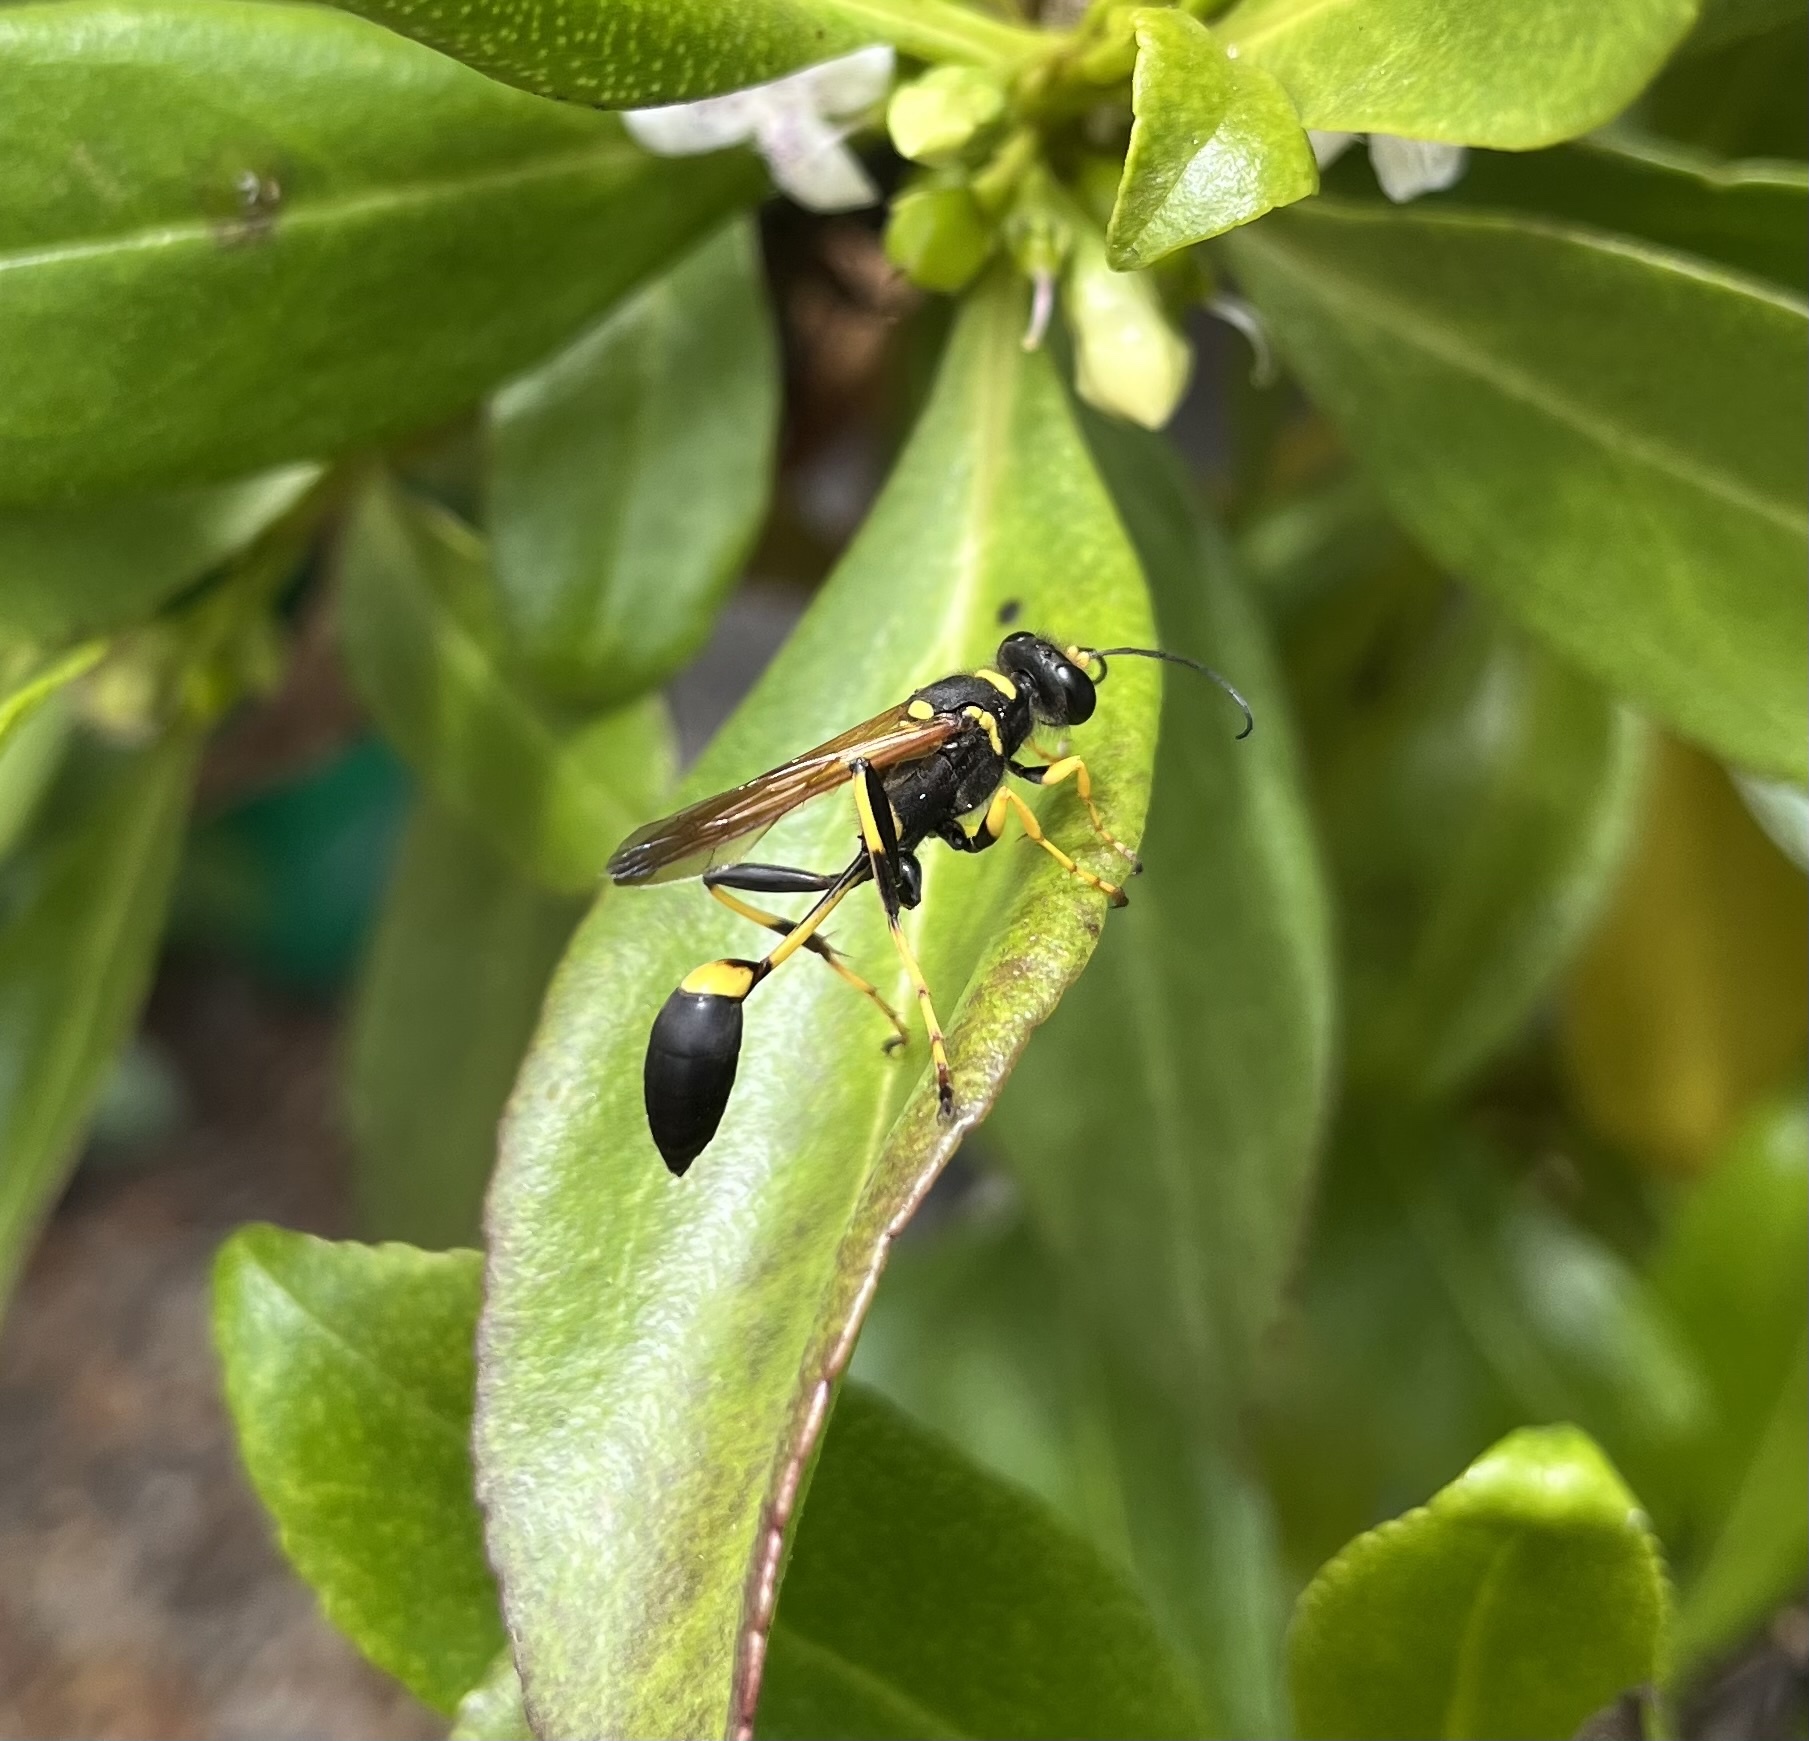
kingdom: Animalia
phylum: Arthropoda
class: Insecta
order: Hymenoptera
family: Sphecidae
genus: Sceliphron
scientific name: Sceliphron caementarium
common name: Mud dauber
